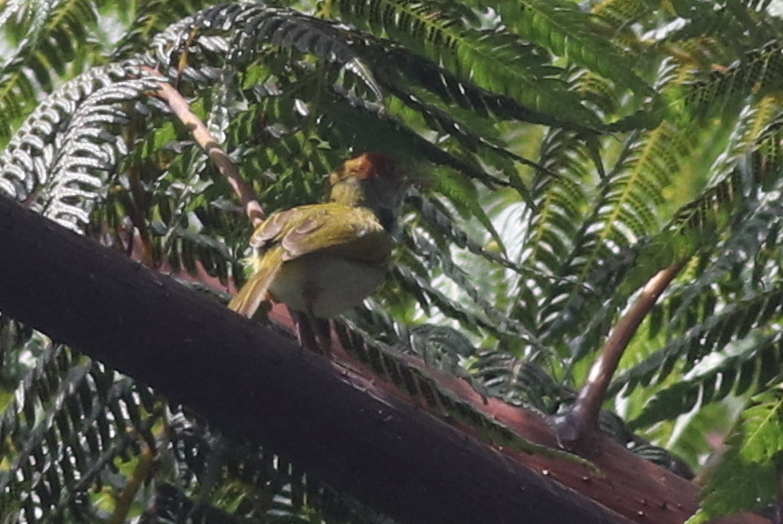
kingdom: Animalia
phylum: Chordata
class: Aves
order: Passeriformes
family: Cisticolidae
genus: Orthotomus
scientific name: Orthotomus atrogularis
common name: Dark-necked tailorbird
